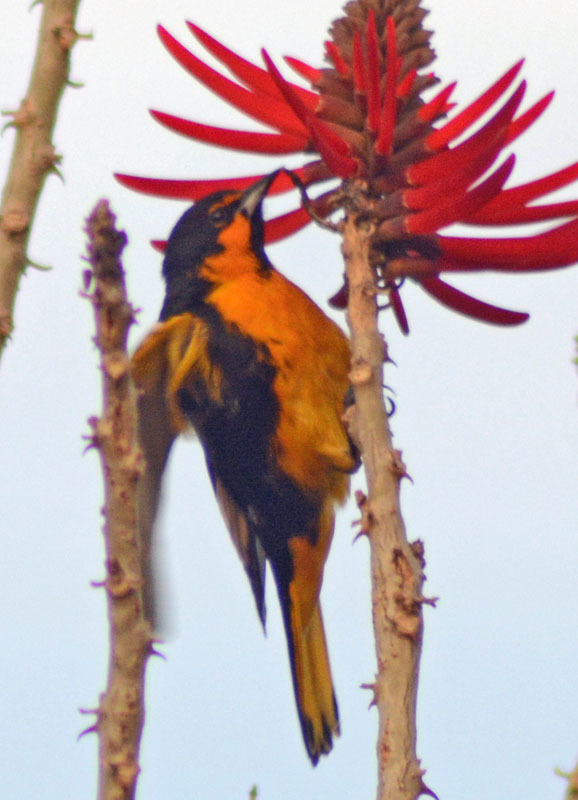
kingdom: Animalia
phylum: Chordata
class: Aves
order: Passeriformes
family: Icteridae
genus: Icterus
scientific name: Icterus abeillei
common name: Black-backed oriole
